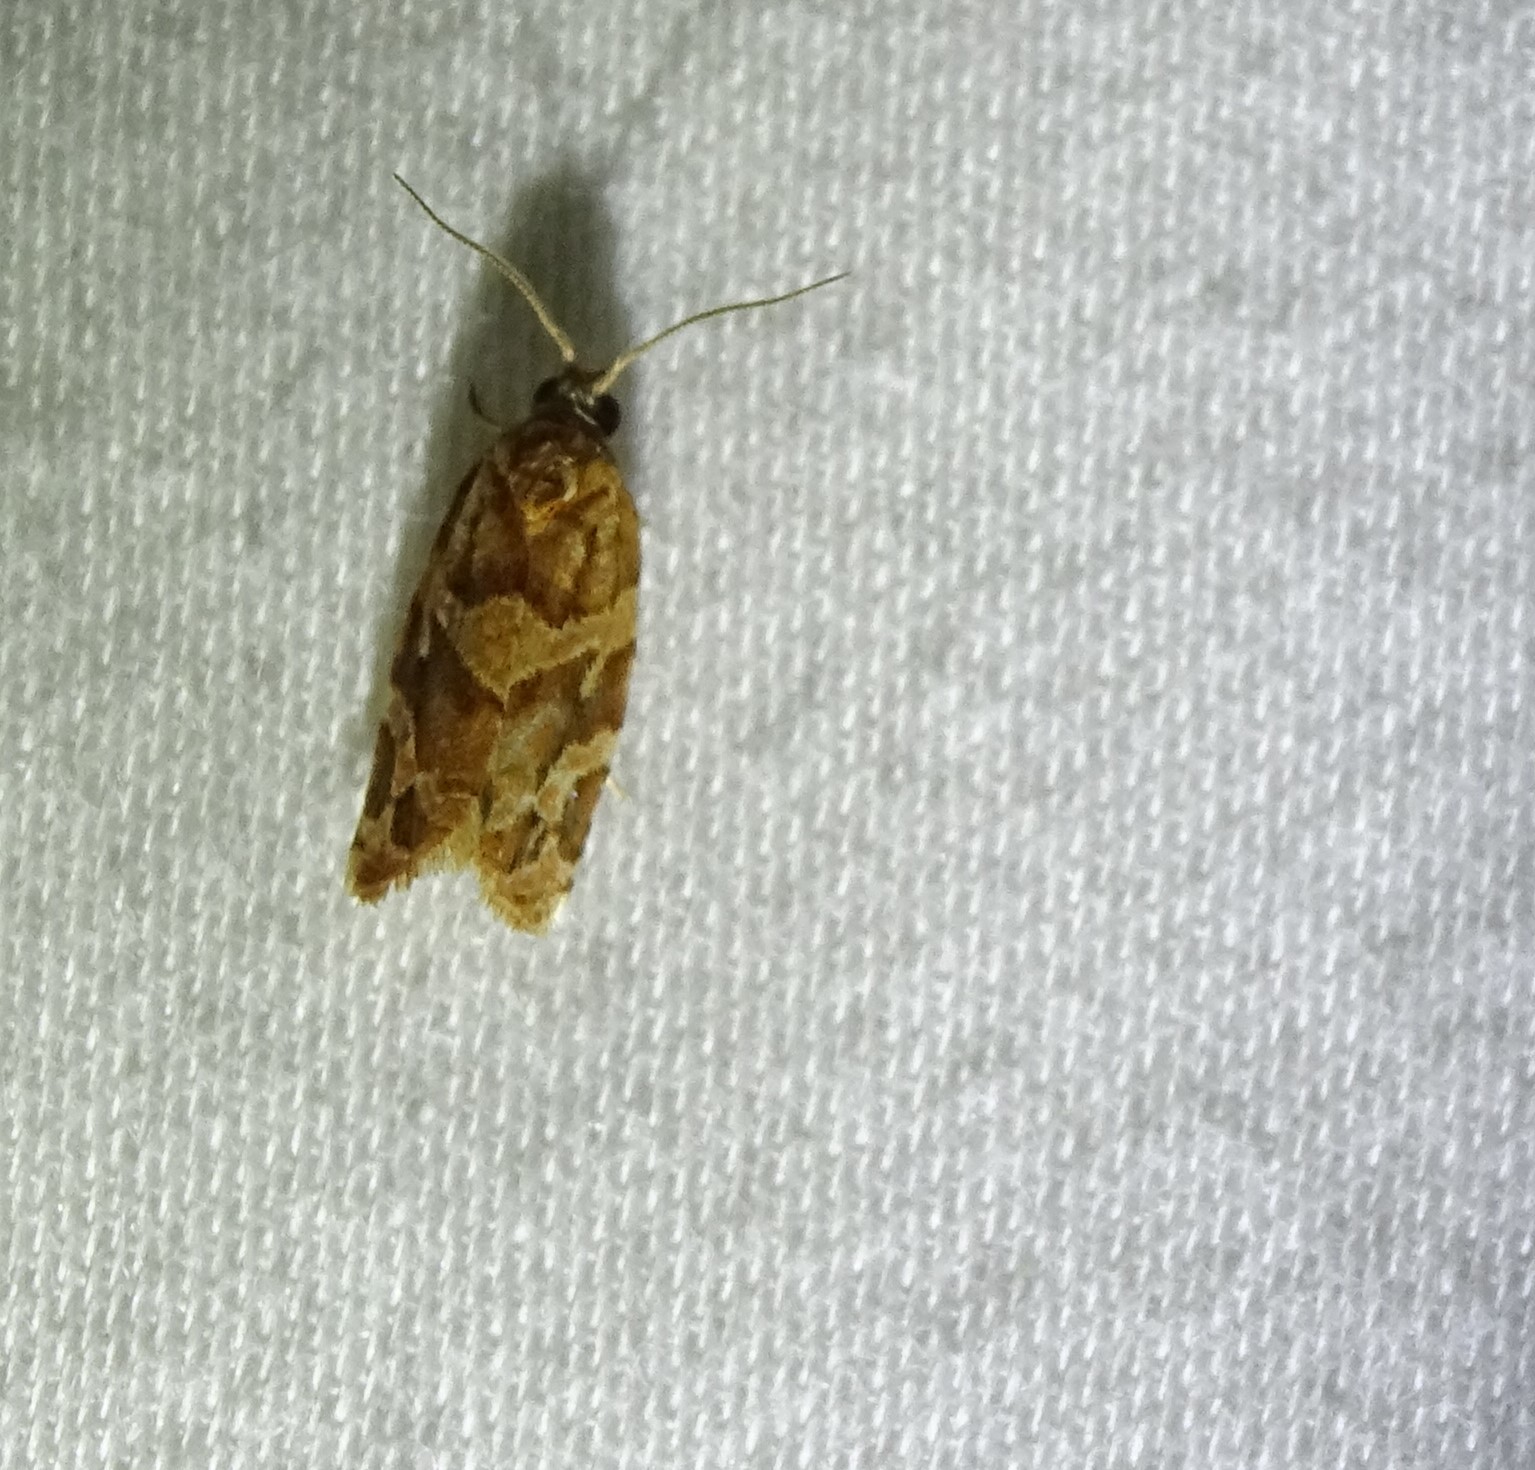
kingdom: Animalia
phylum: Arthropoda
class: Insecta
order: Lepidoptera
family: Tortricidae
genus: Argyrotaenia
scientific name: Argyrotaenia hodgesi
